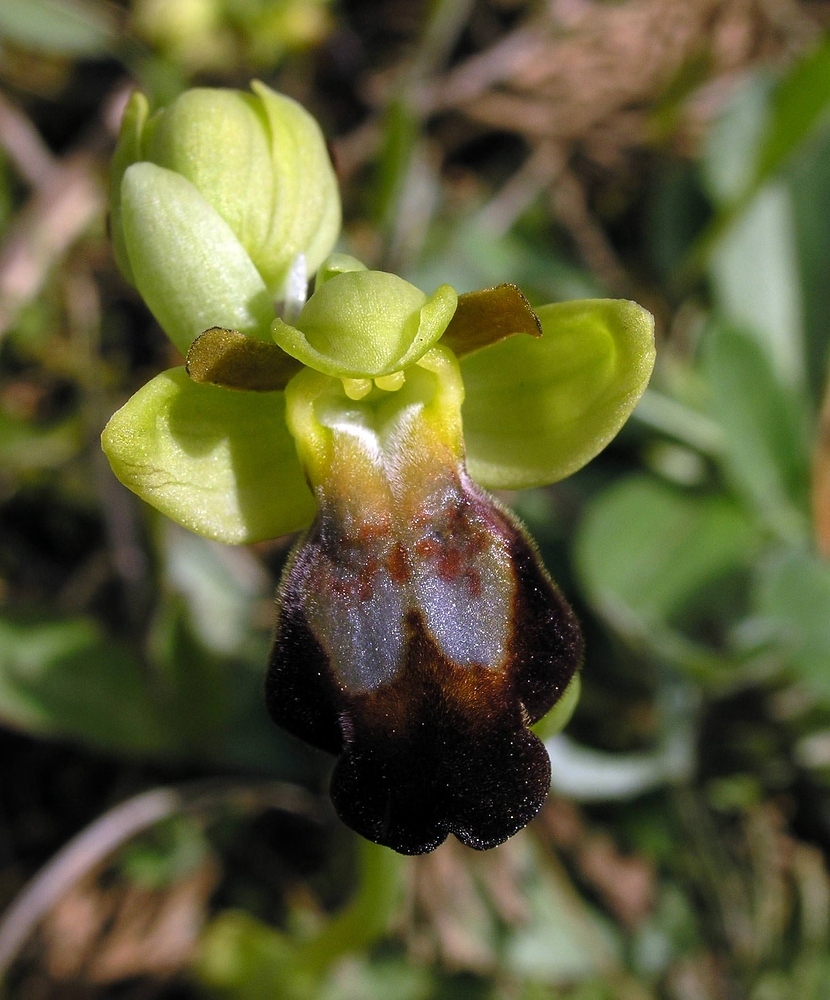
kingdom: Plantae
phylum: Tracheophyta
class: Liliopsida
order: Asparagales
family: Orchidaceae
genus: Ophrys
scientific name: Ophrys fusca
